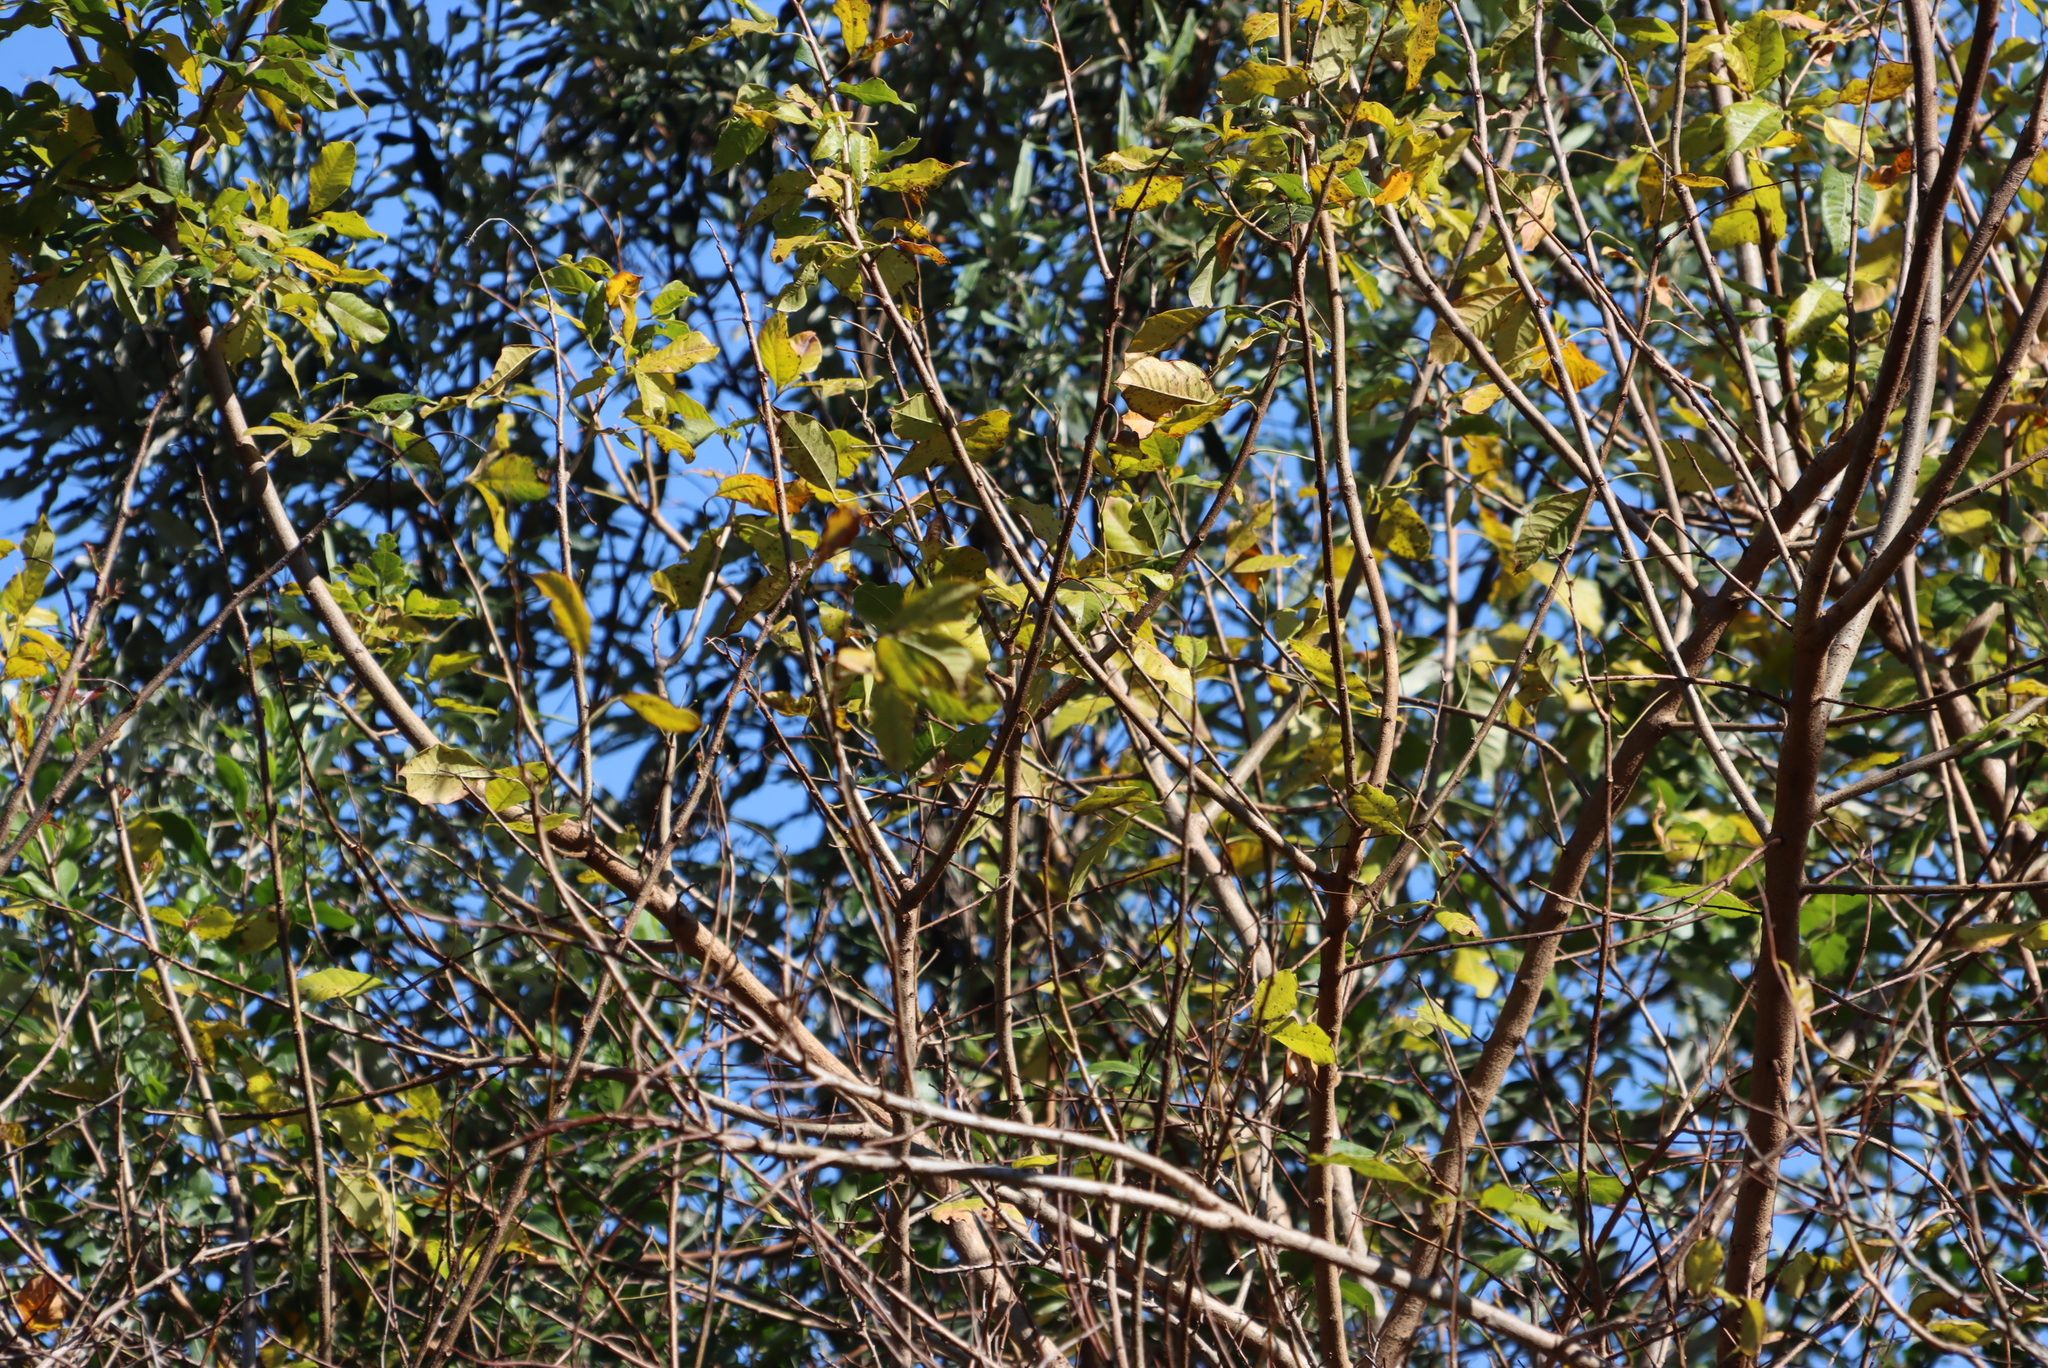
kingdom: Plantae
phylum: Tracheophyta
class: Magnoliopsida
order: Sapindales
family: Anacardiaceae
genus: Searsia
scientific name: Searsia chirindensis
